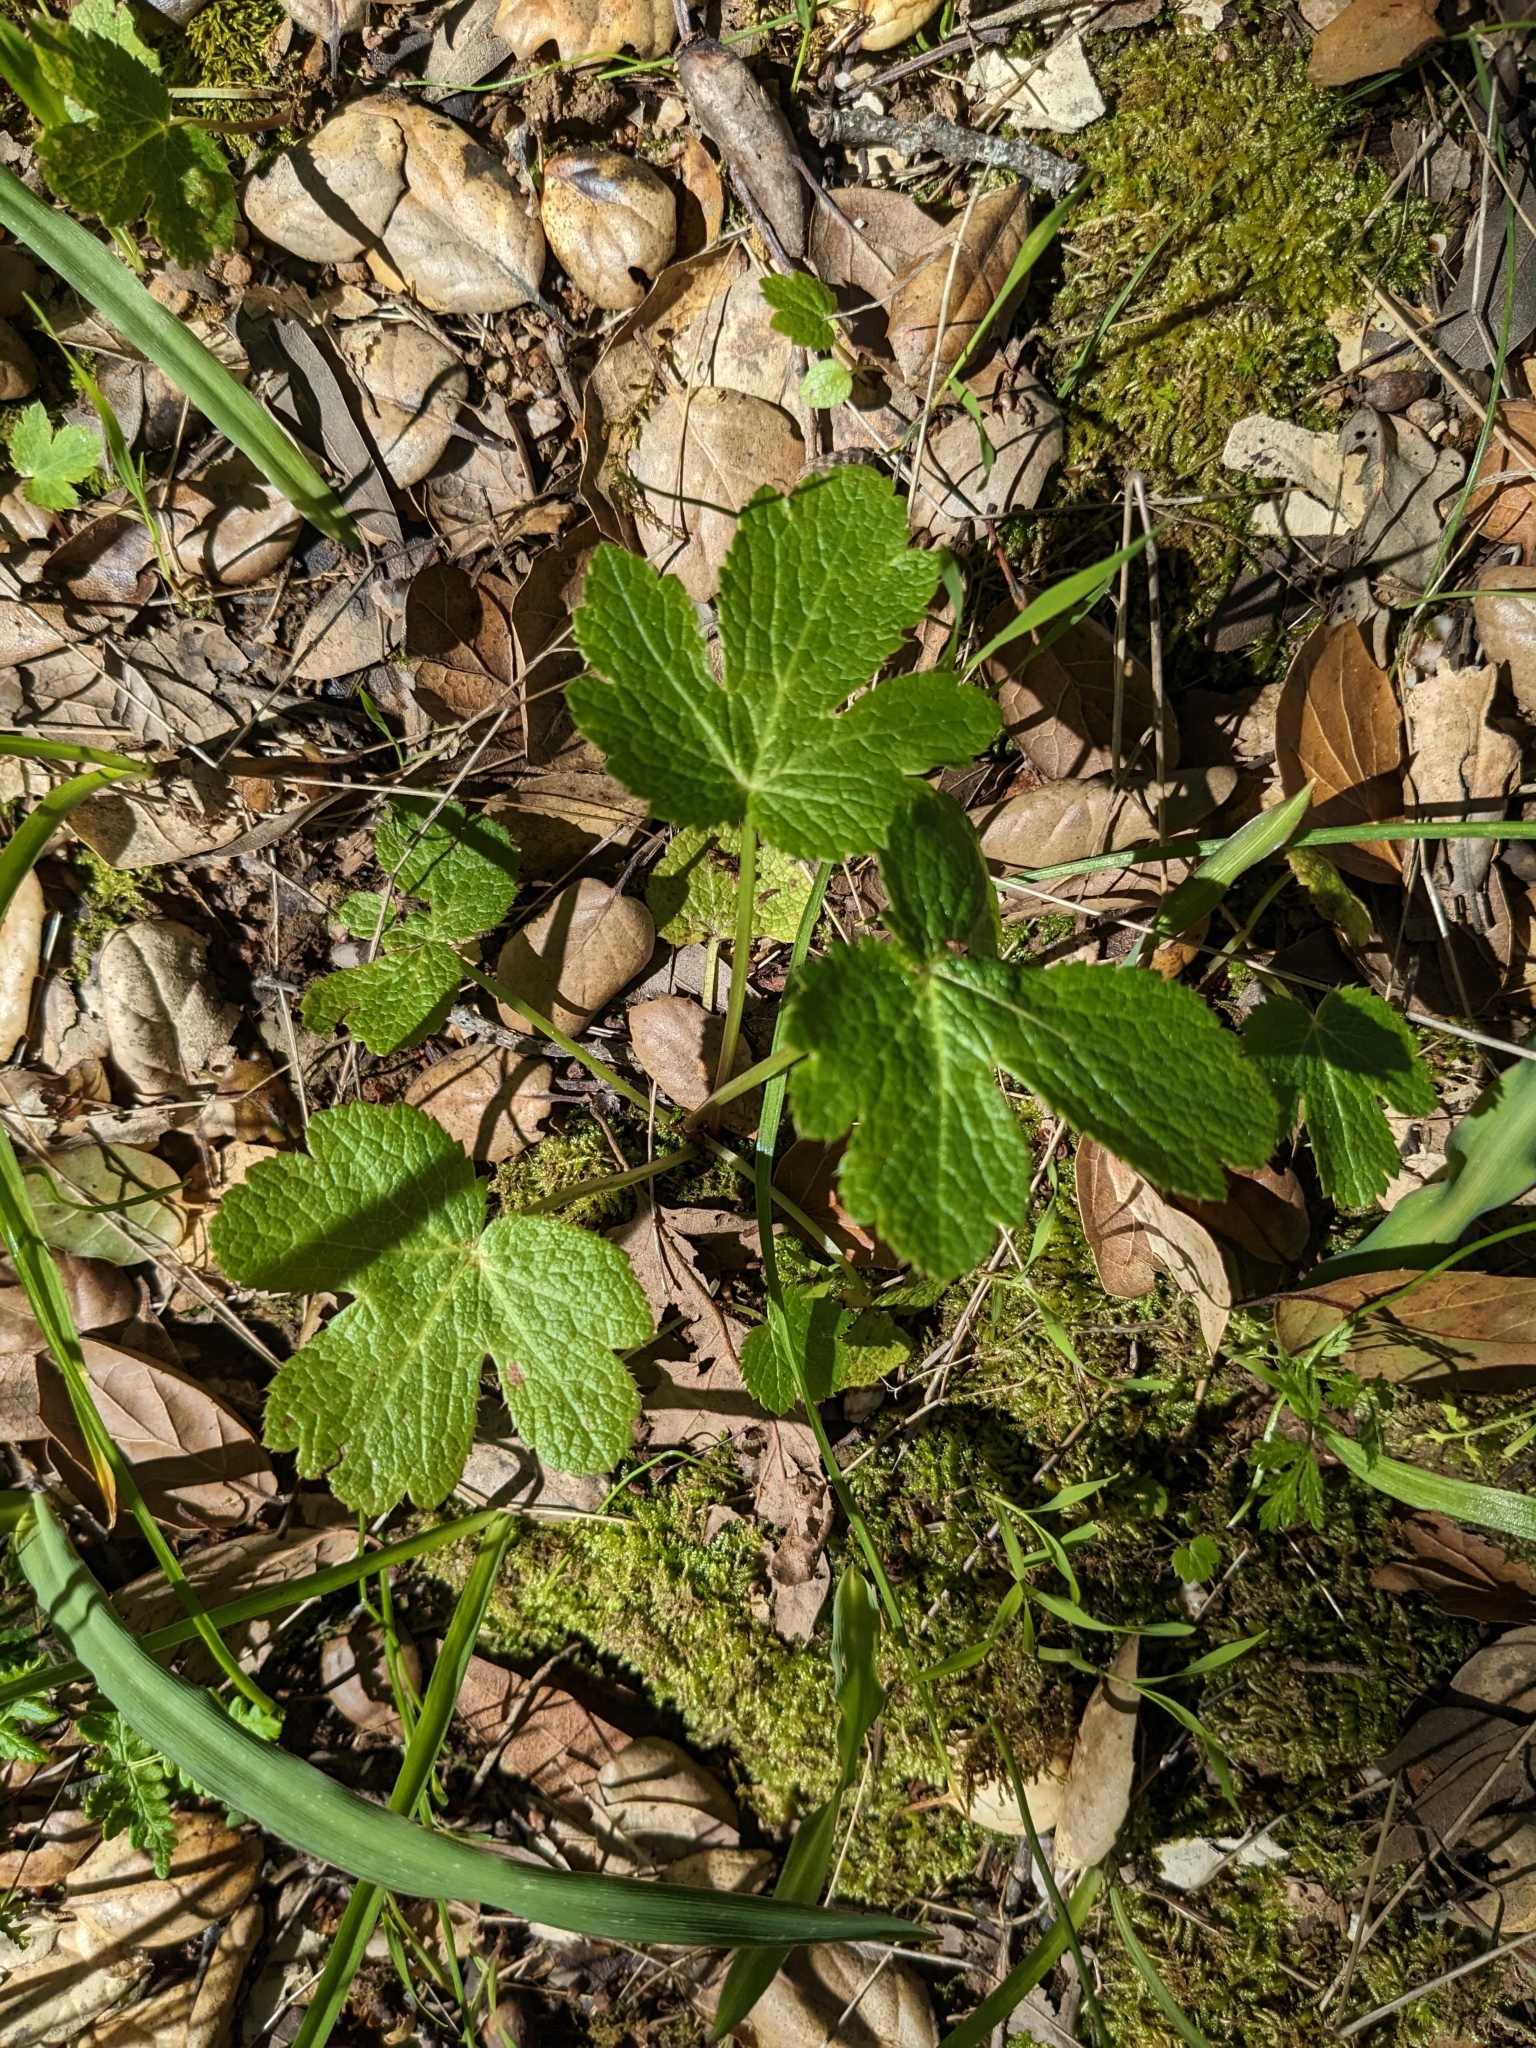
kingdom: Plantae
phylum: Tracheophyta
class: Magnoliopsida
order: Apiales
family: Apiaceae
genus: Sanicula
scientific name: Sanicula crassicaulis
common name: Western snakeroot
